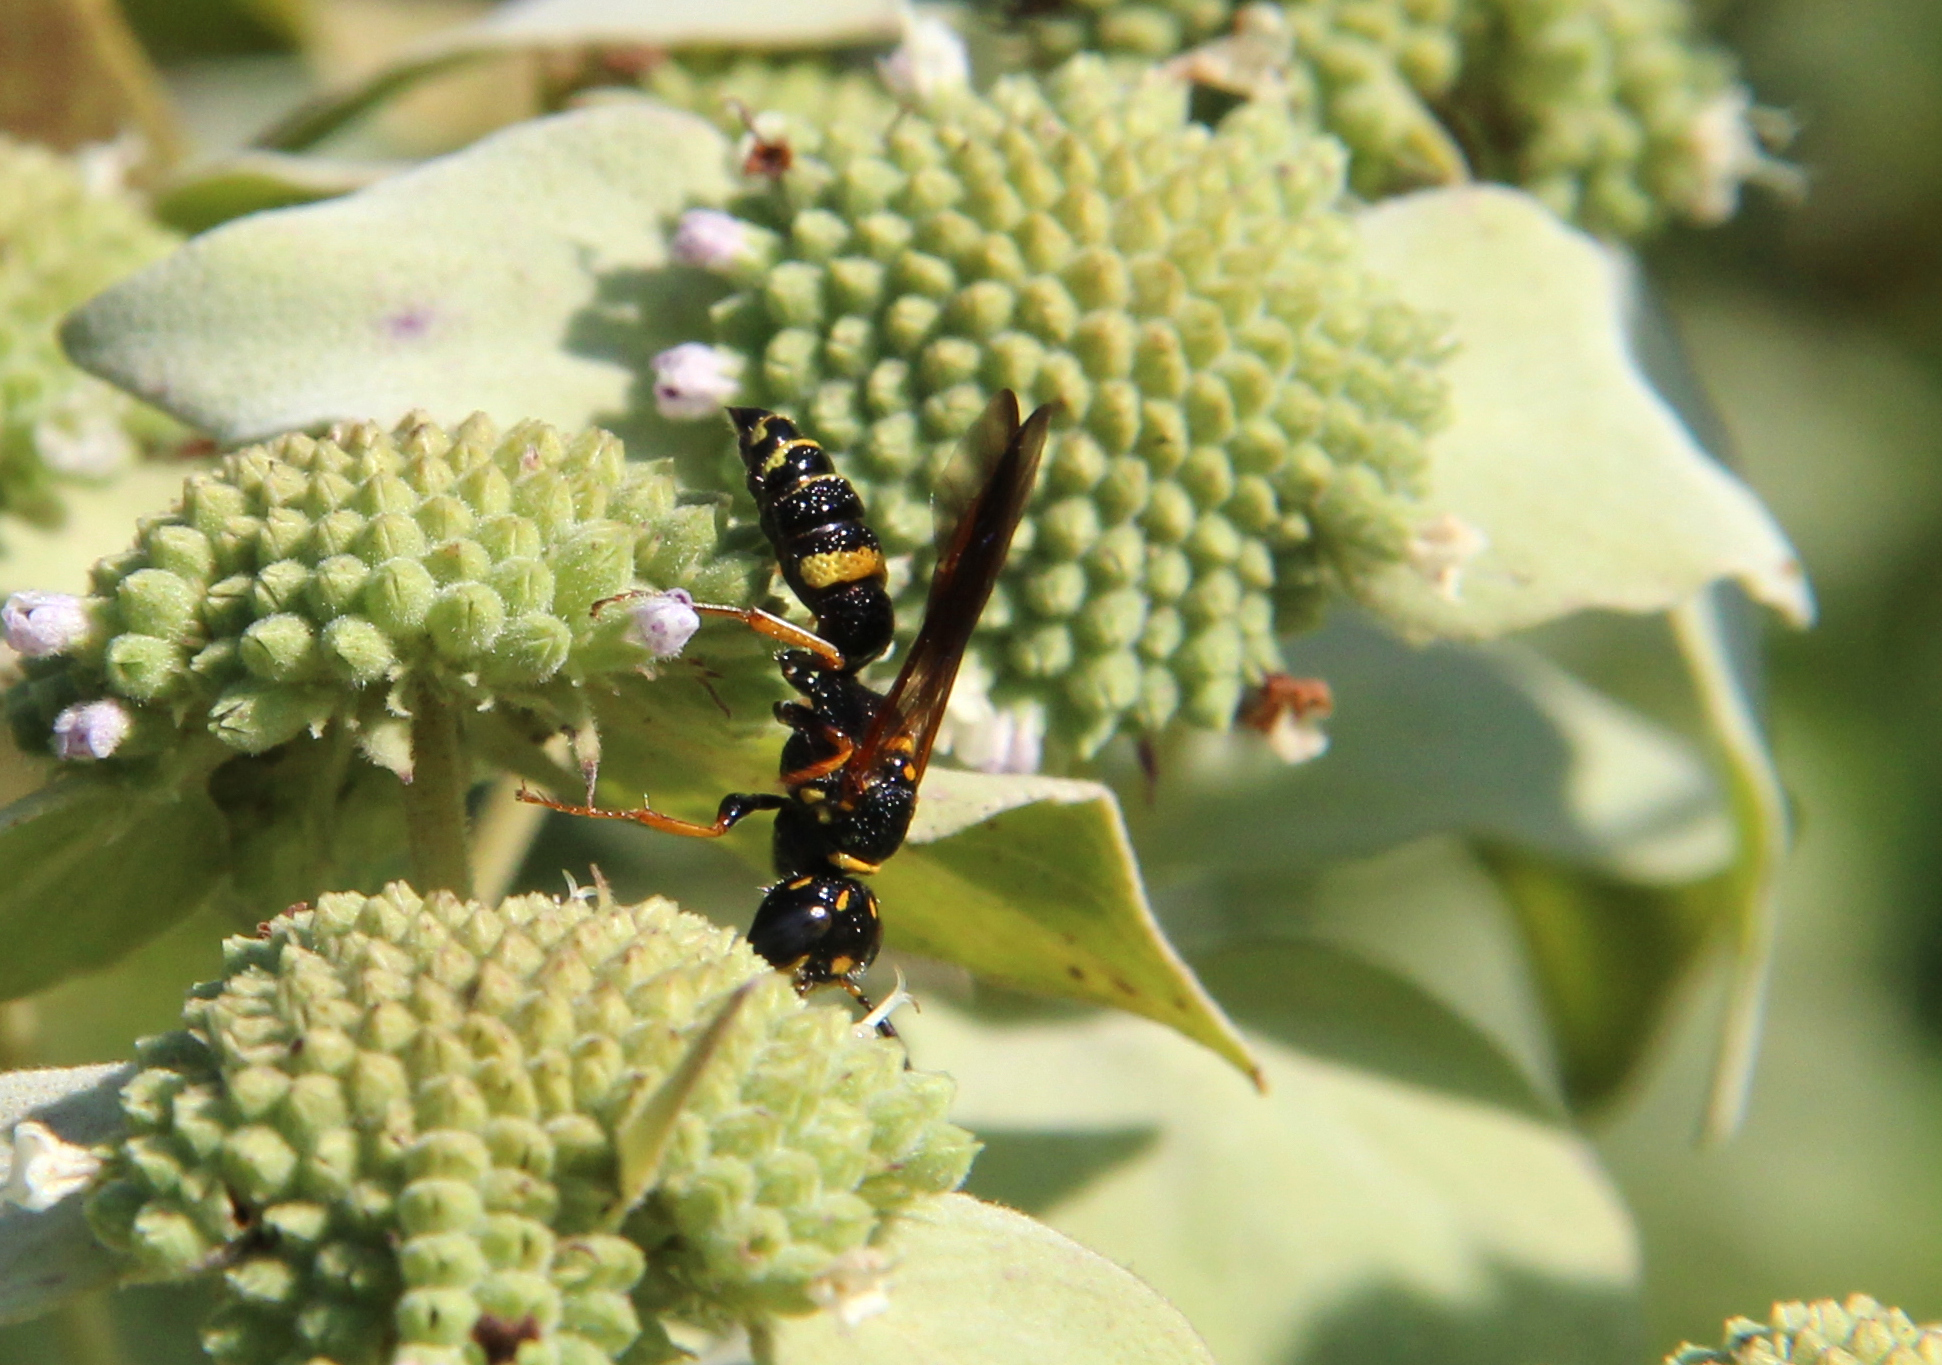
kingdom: Animalia
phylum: Arthropoda
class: Insecta
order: Hymenoptera
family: Crabronidae
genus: Philanthus
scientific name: Philanthus gibbosus
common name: Humped beewolf
